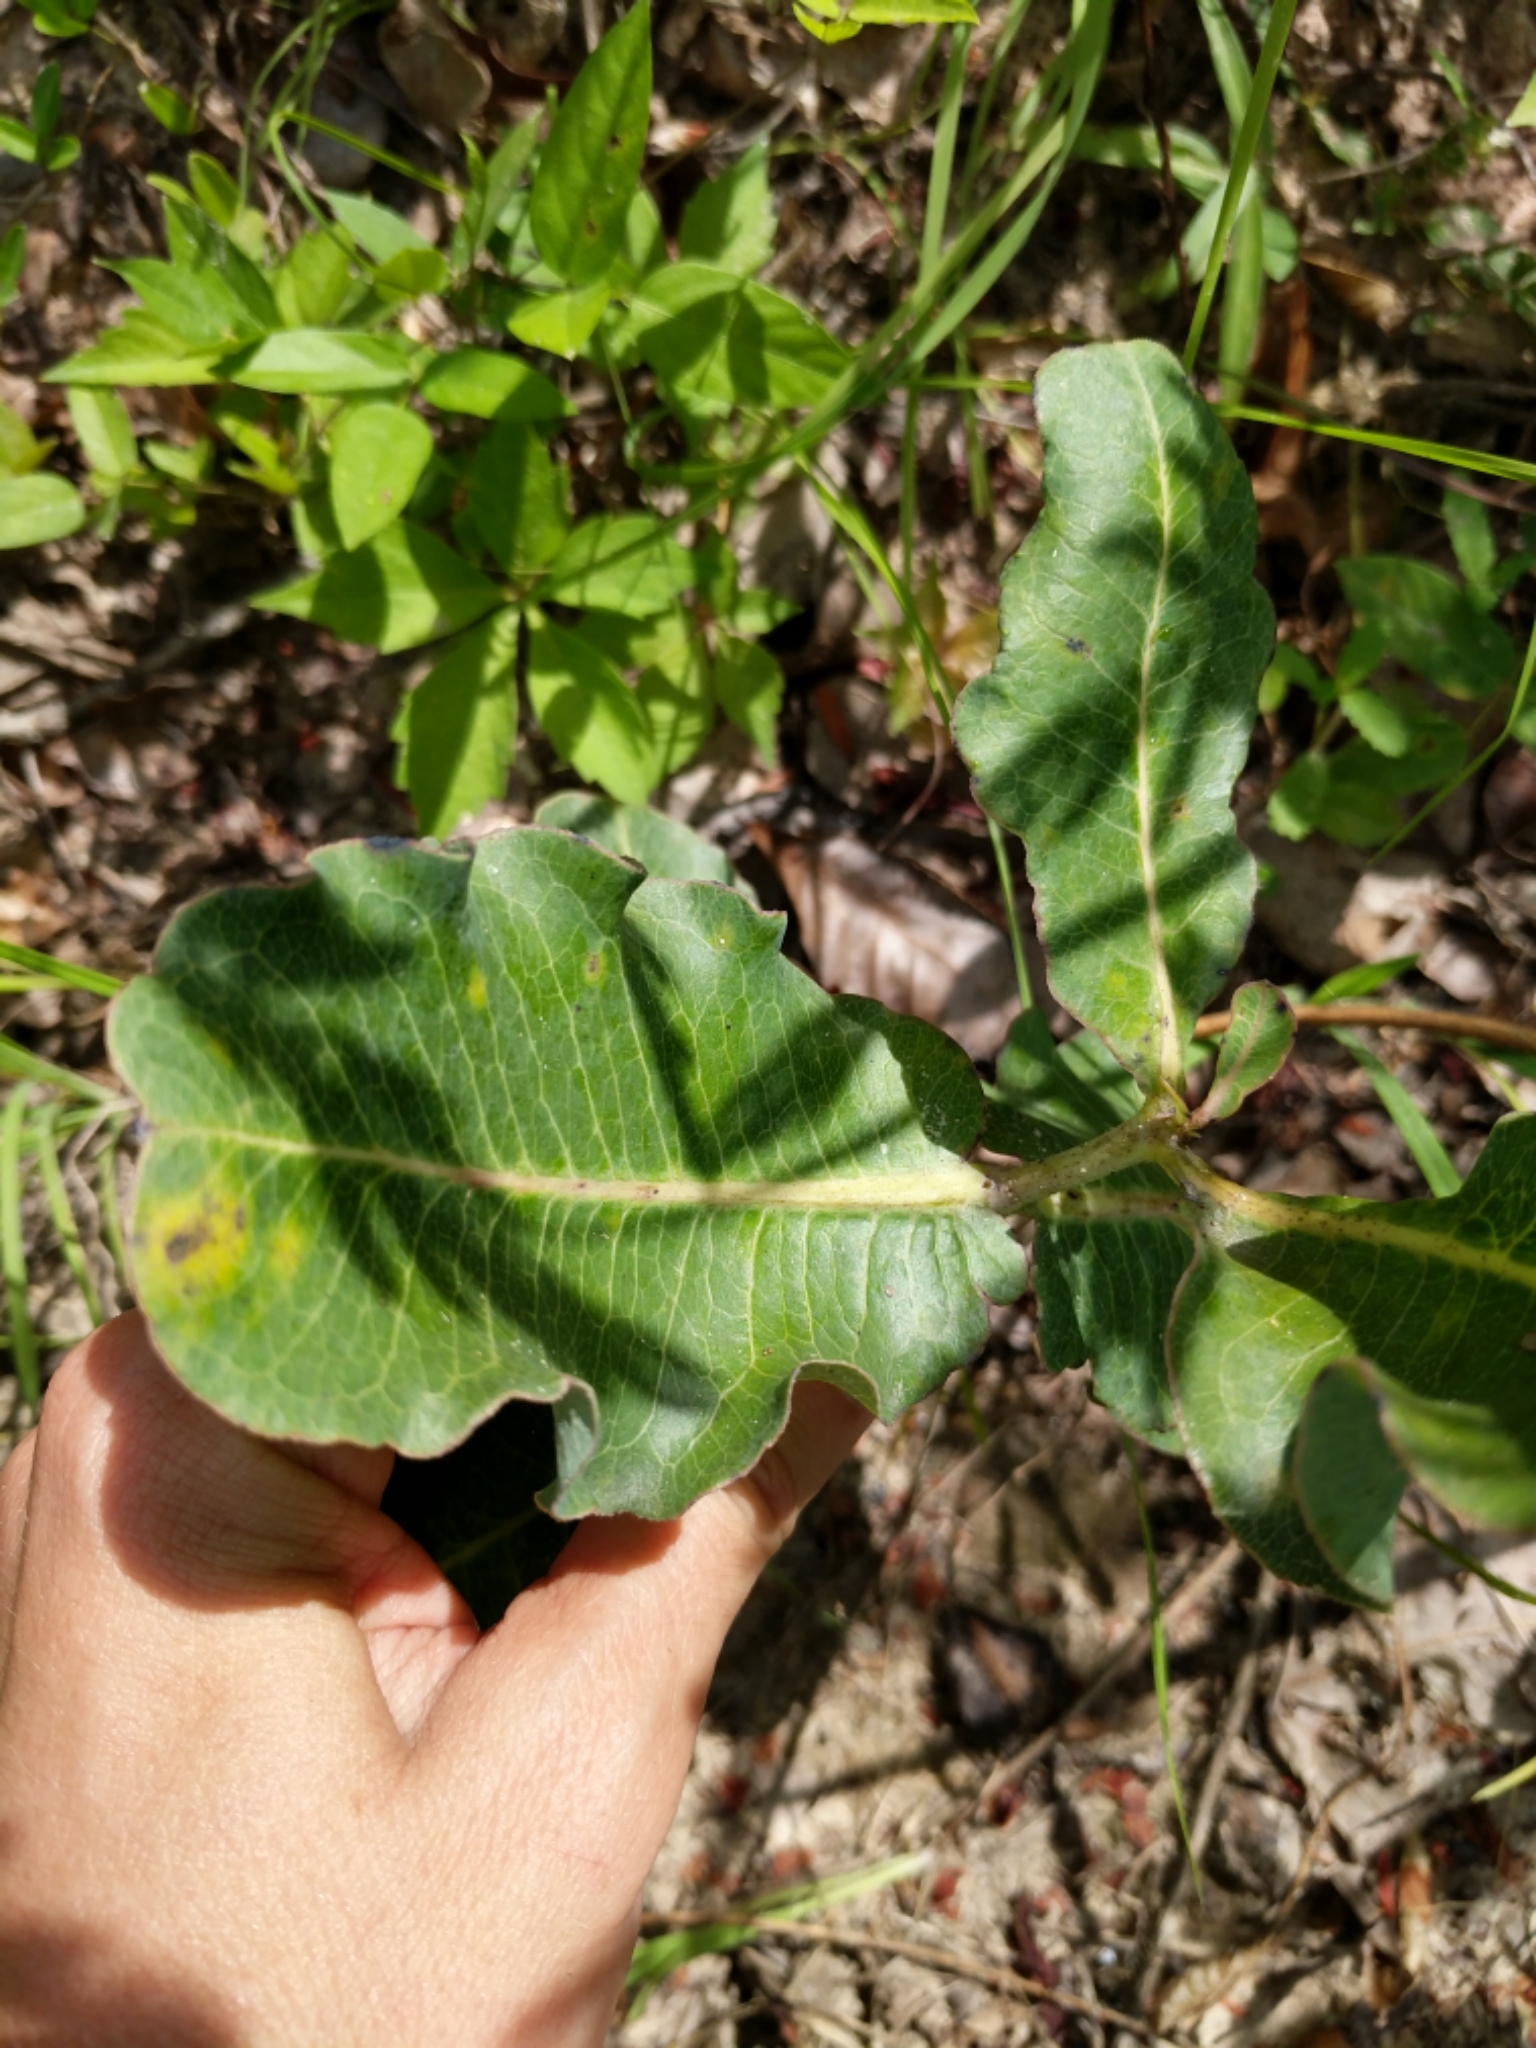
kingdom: Plantae
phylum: Tracheophyta
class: Magnoliopsida
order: Gentianales
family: Apocynaceae
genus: Asclepias
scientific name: Asclepias amplexicaulis
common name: Blunt-leaf milkweed
